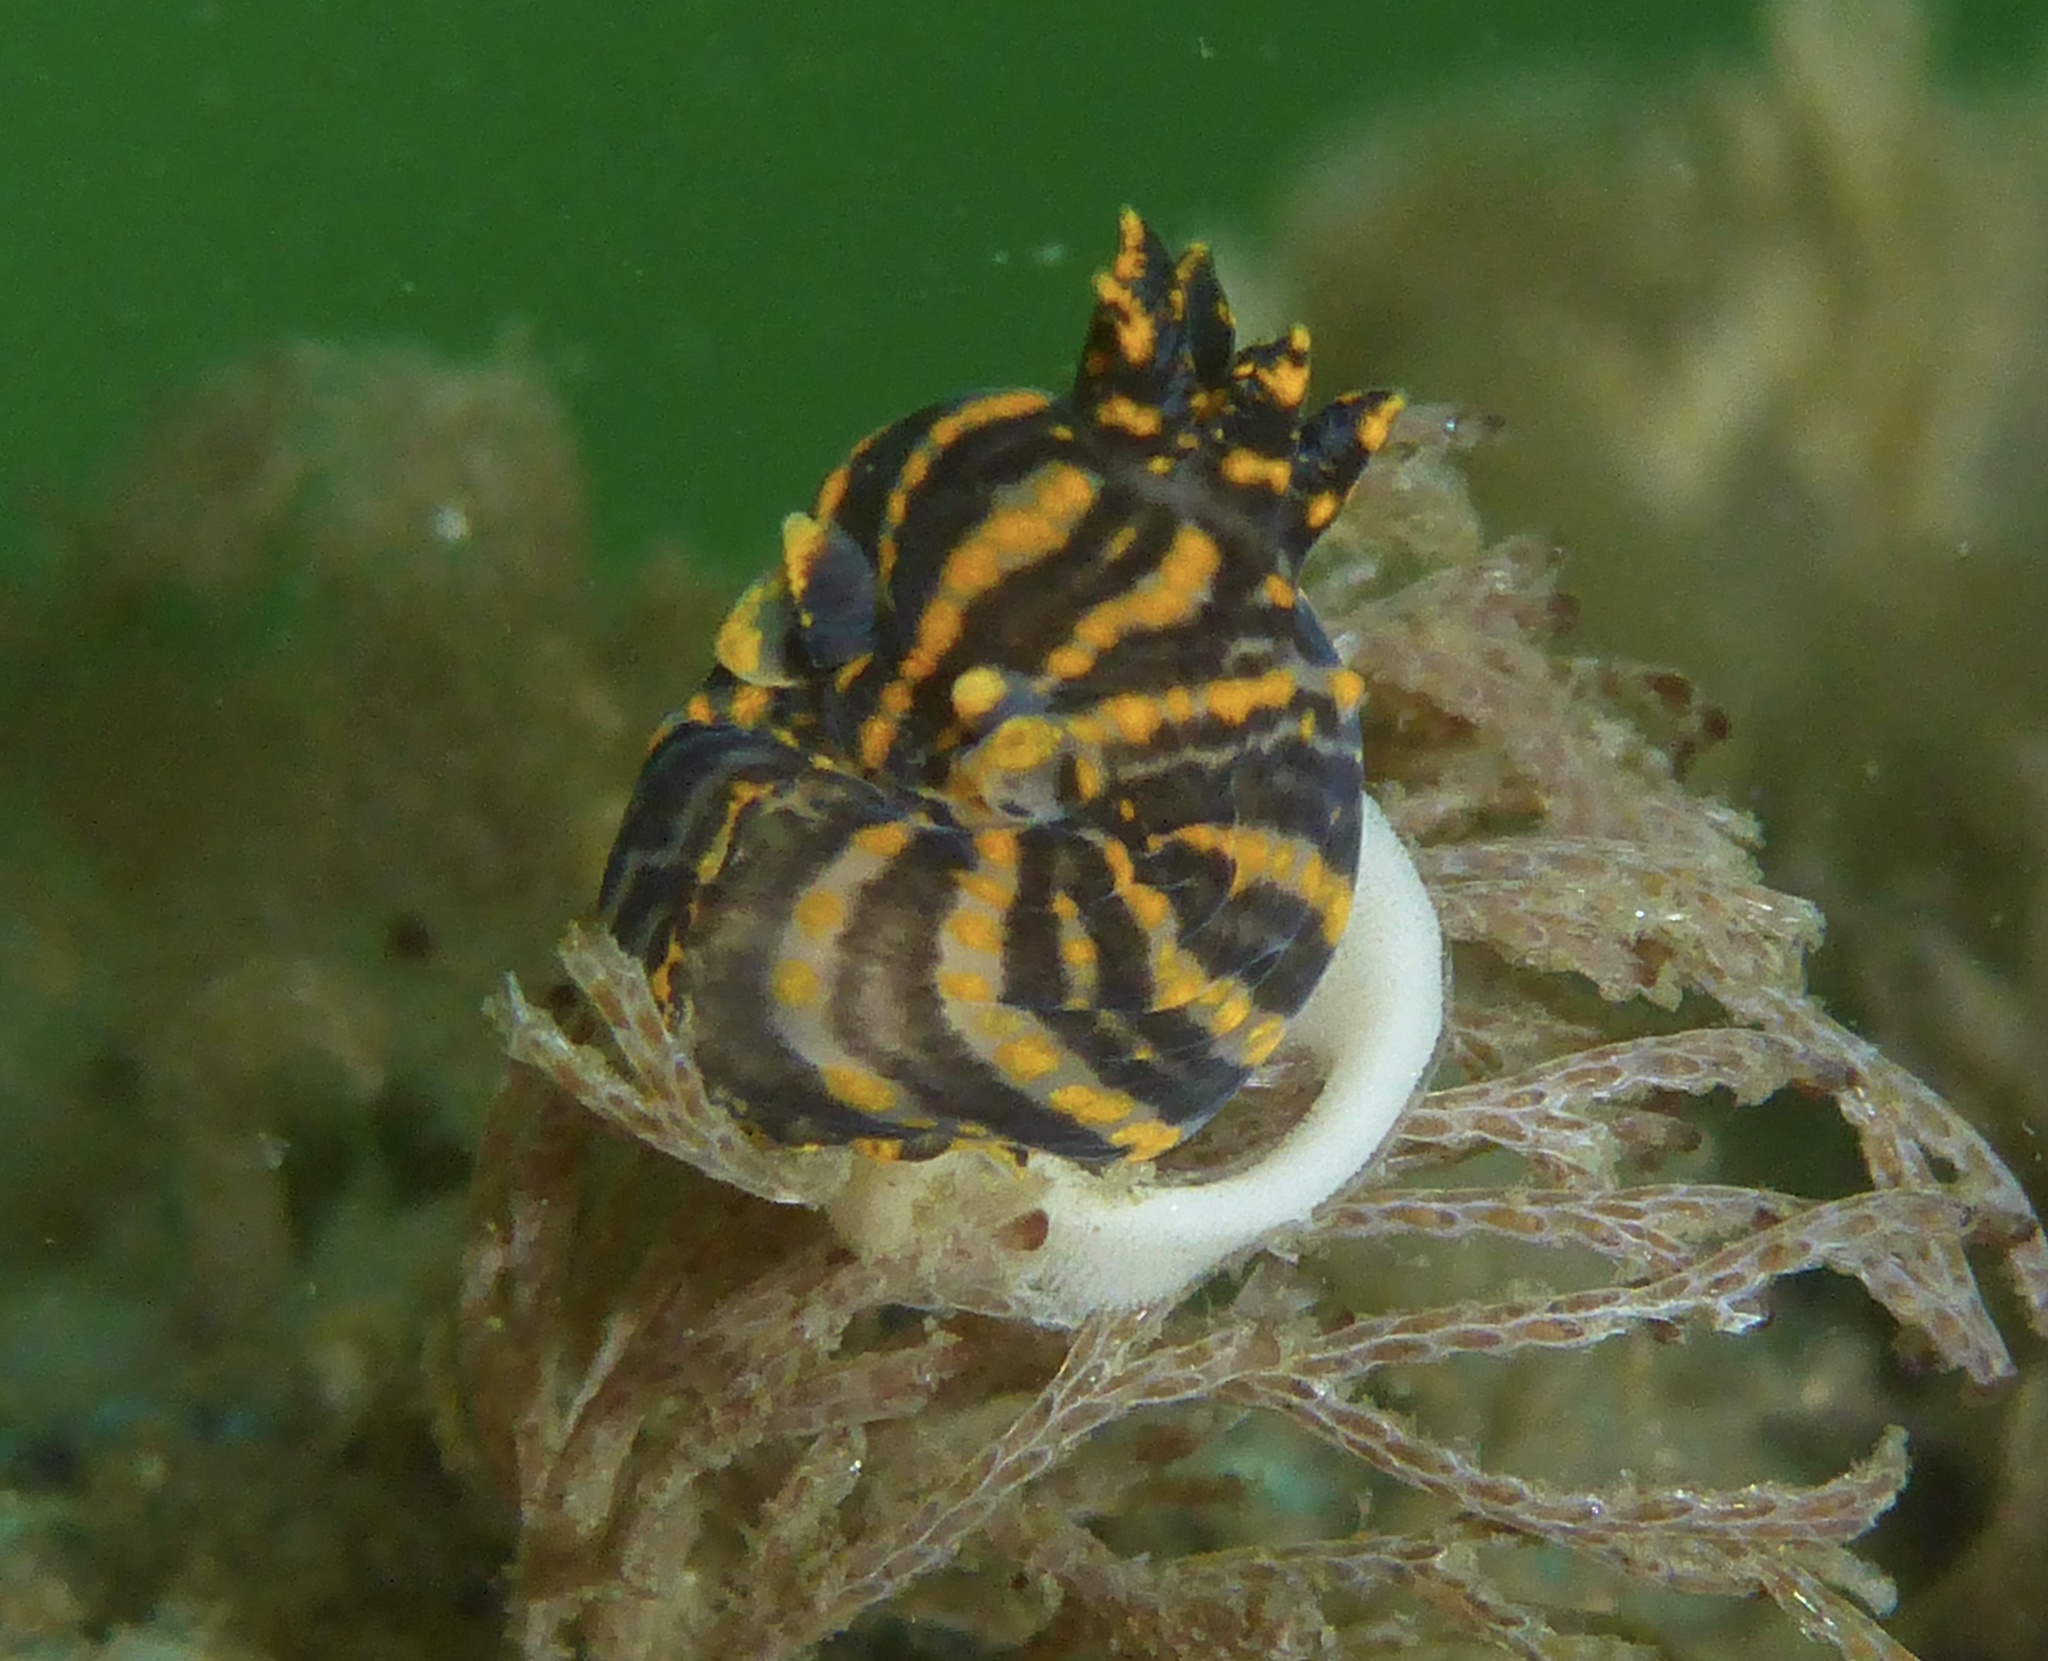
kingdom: Animalia
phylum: Mollusca
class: Gastropoda
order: Nudibranchia
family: Polyceridae
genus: Polycera
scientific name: Polycera atra
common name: Orange-spike polycera
